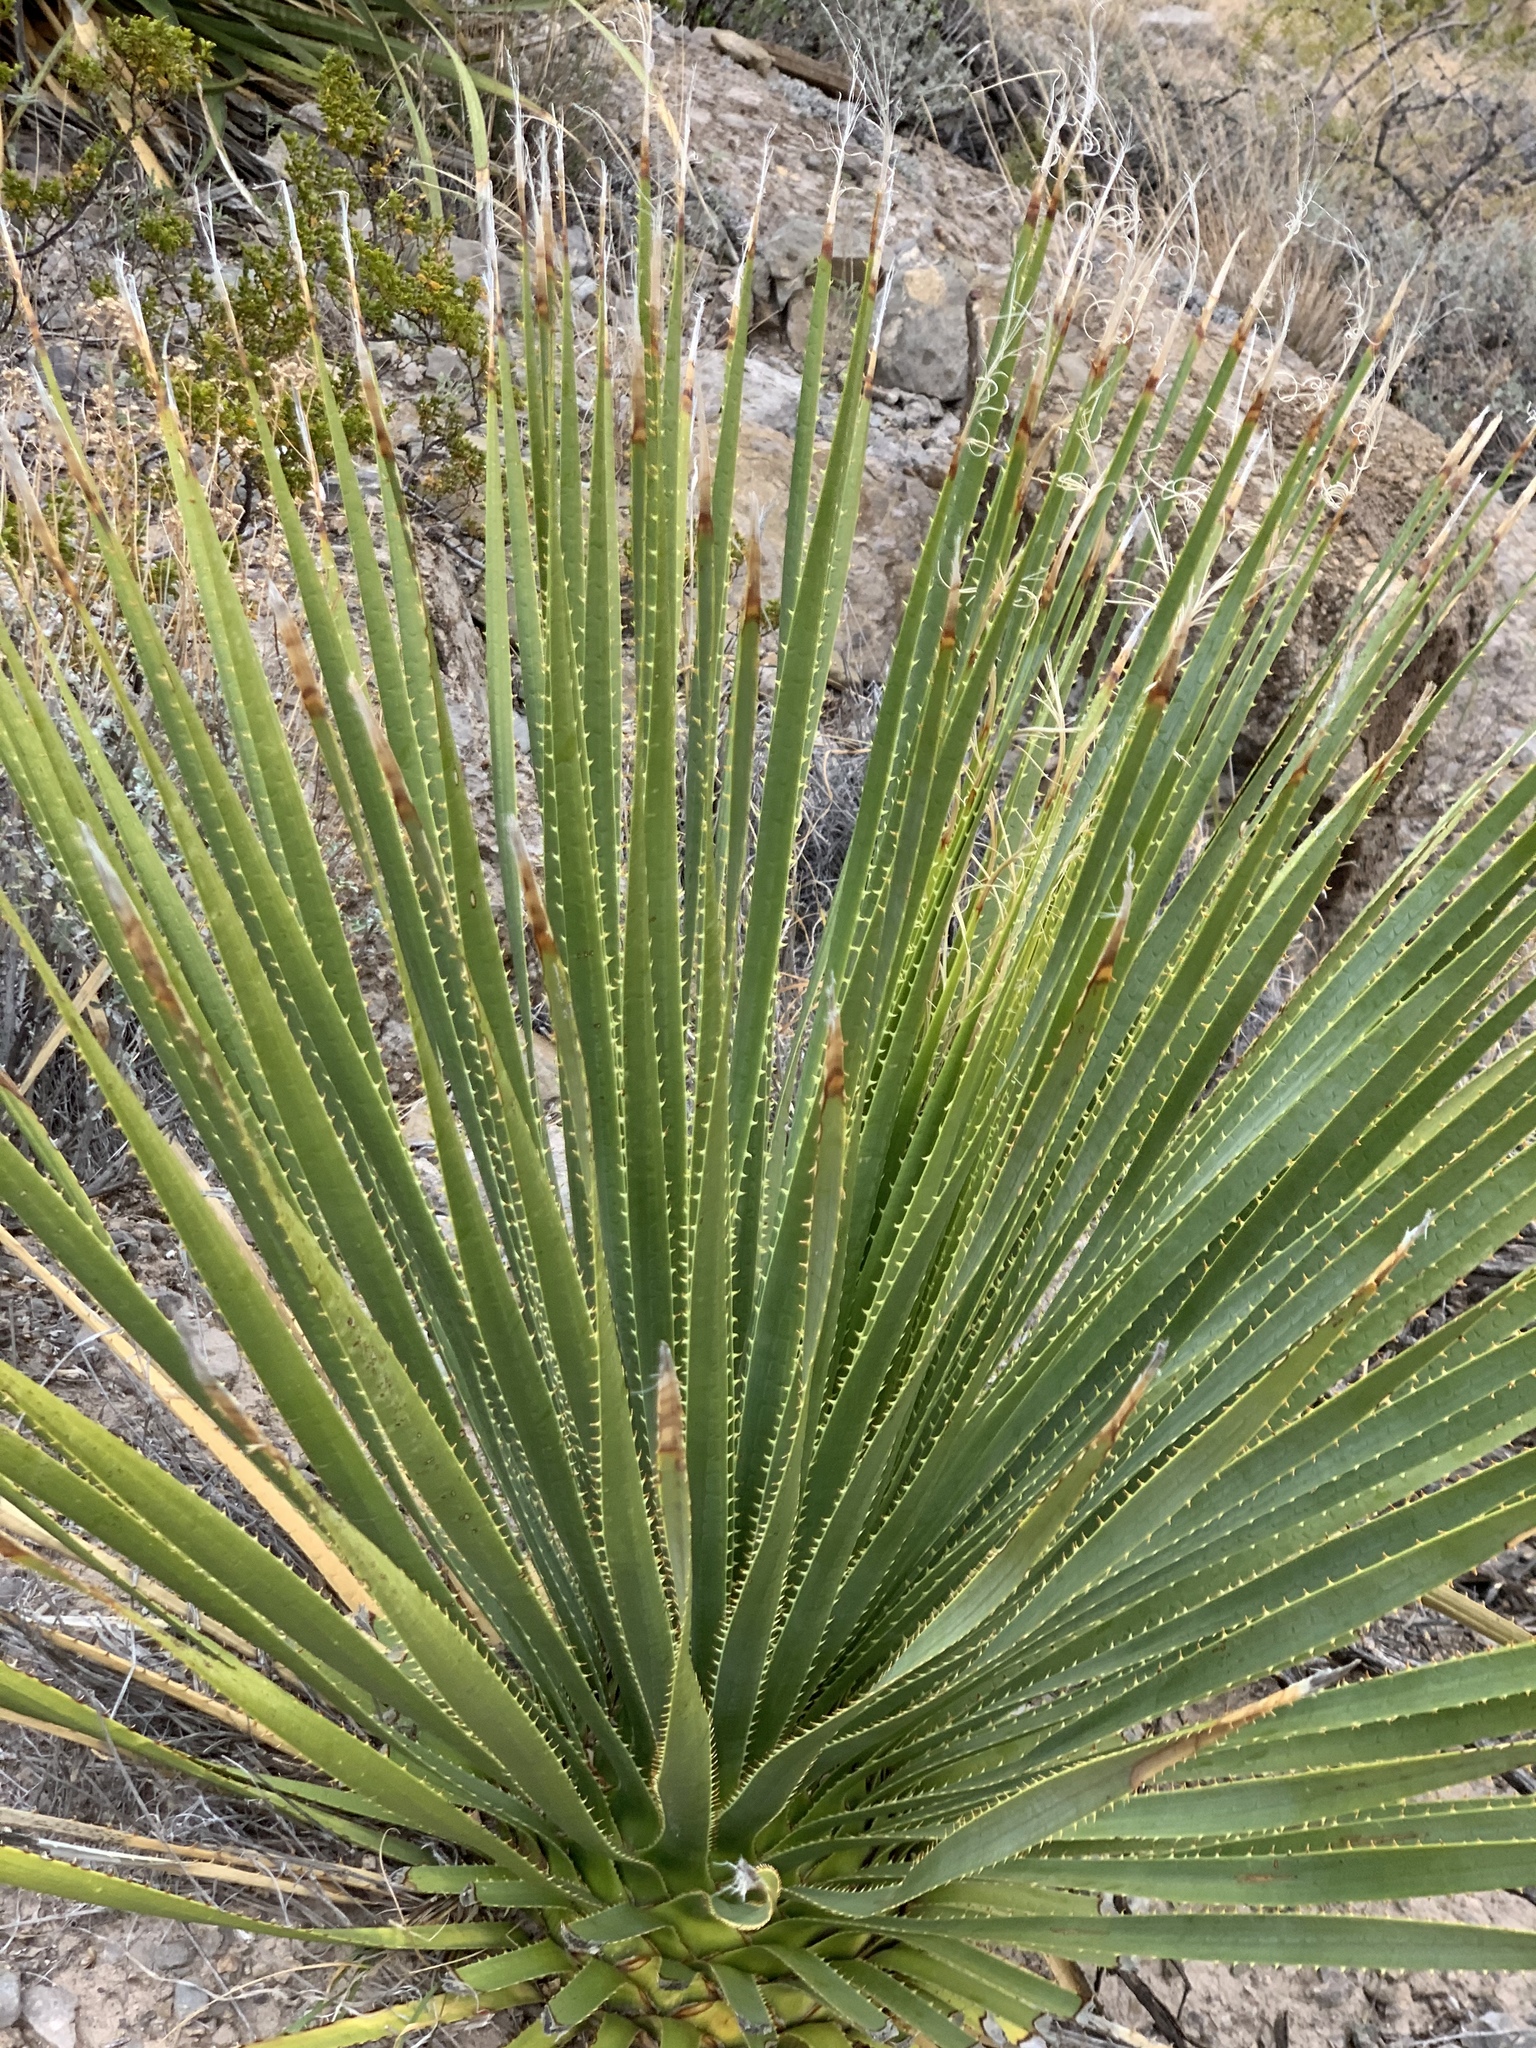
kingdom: Plantae
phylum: Tracheophyta
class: Liliopsida
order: Asparagales
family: Asparagaceae
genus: Dasylirion
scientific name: Dasylirion wheeleri
